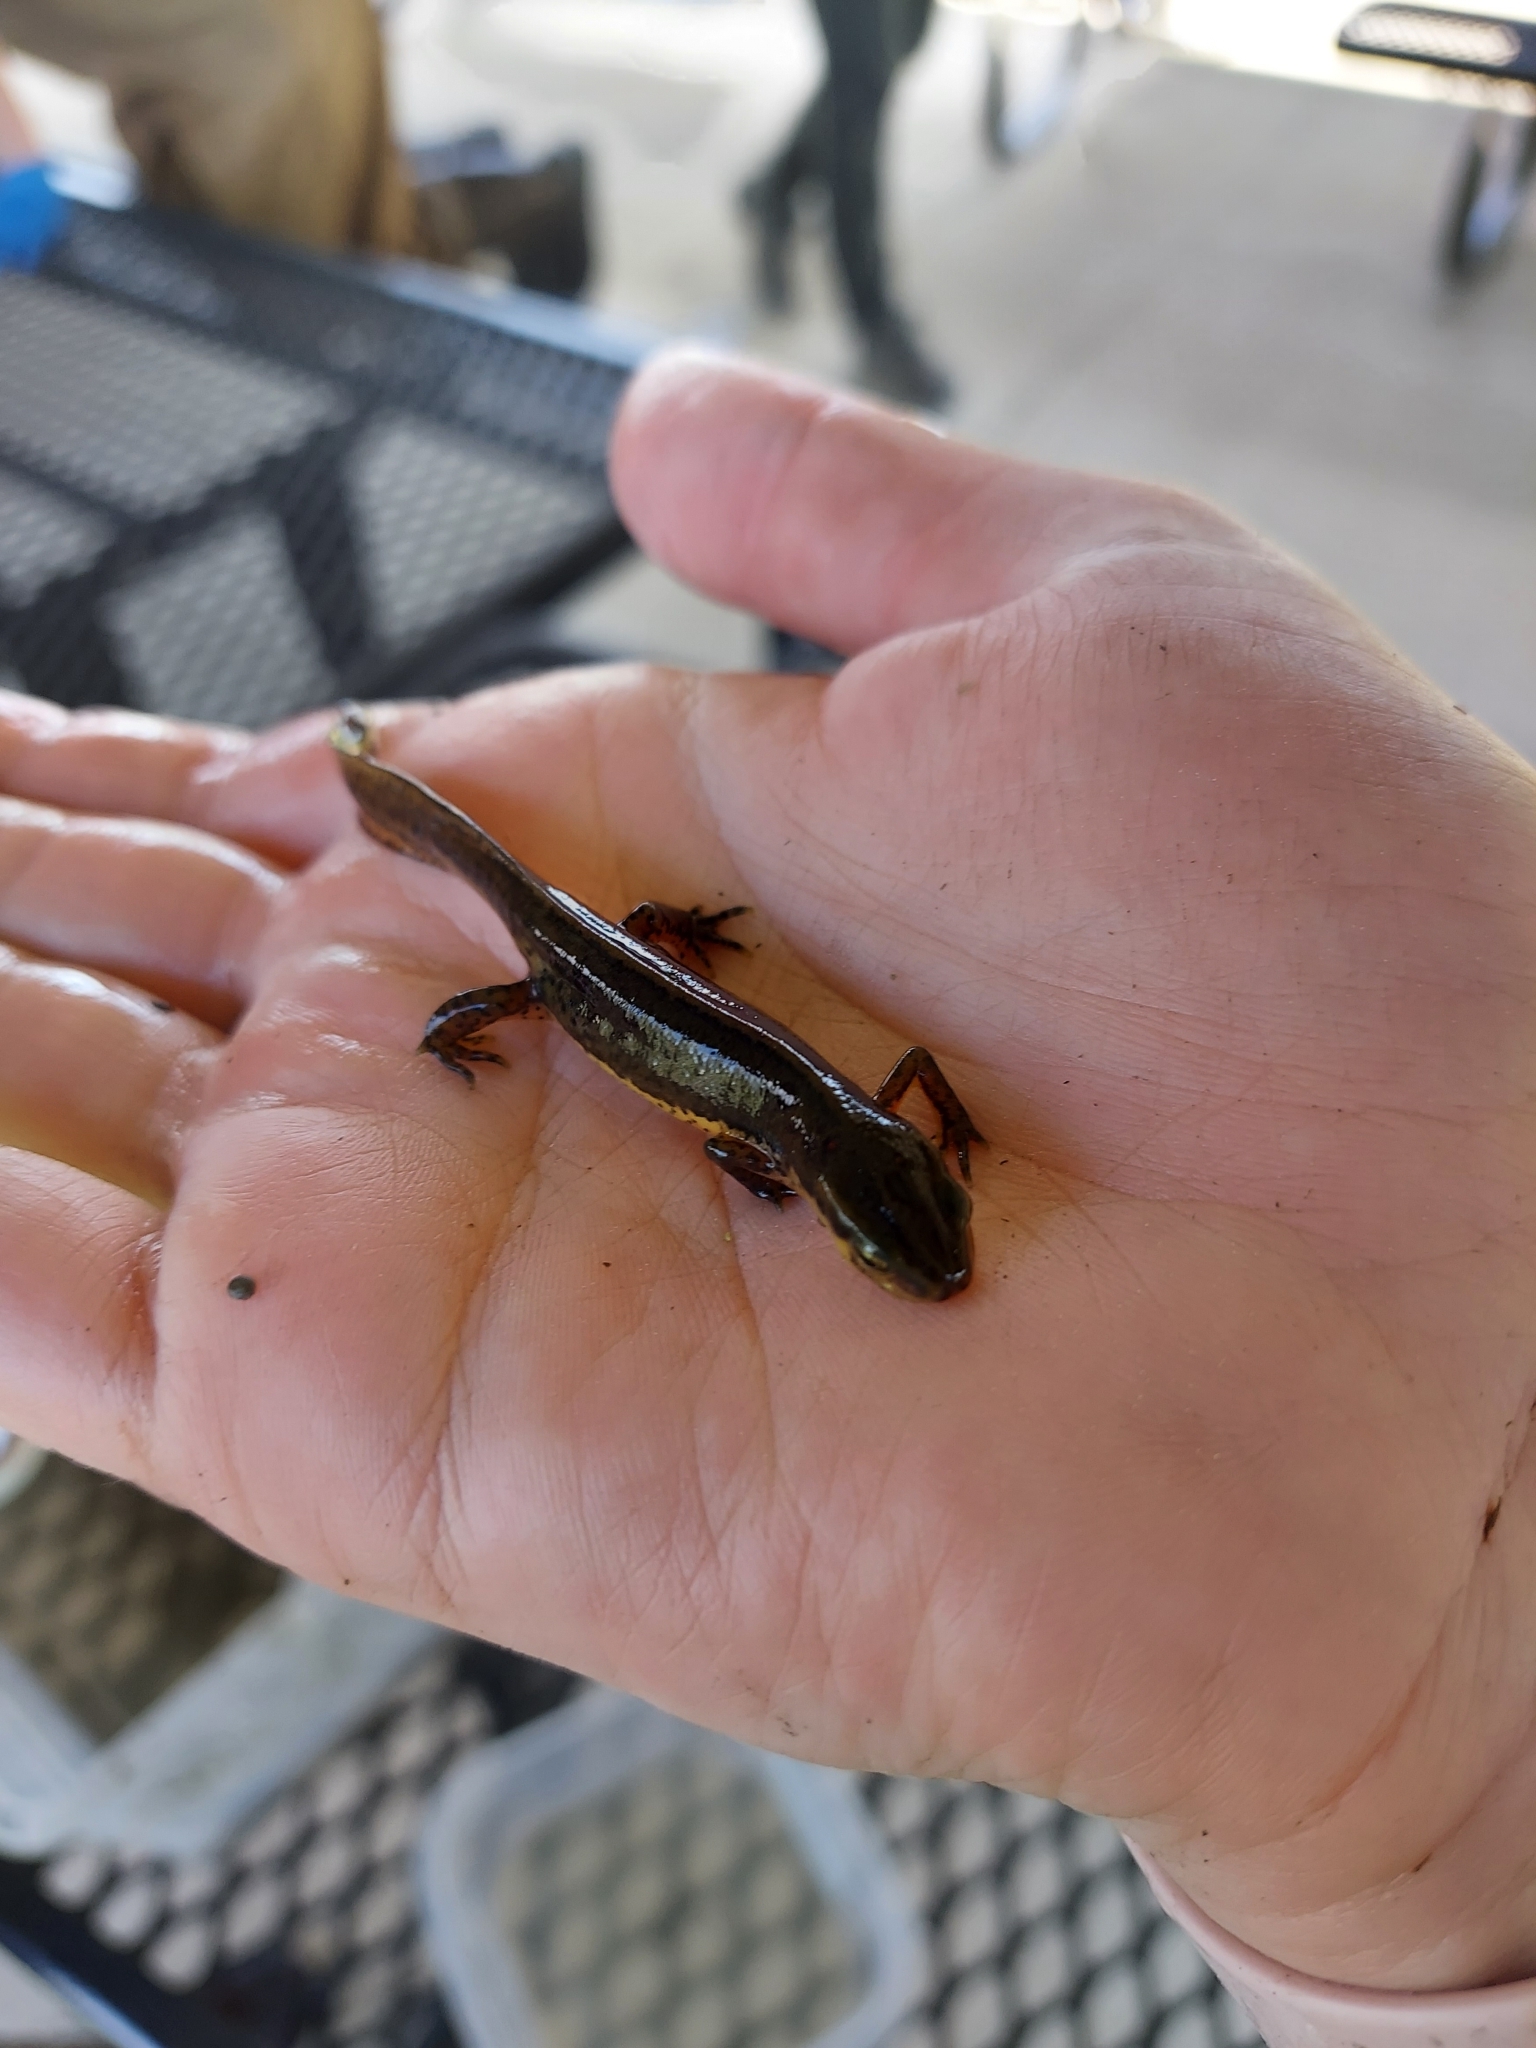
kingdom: Animalia
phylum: Chordata
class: Amphibia
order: Caudata
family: Salamandridae
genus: Notophthalmus
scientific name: Notophthalmus viridescens
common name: Eastern newt
